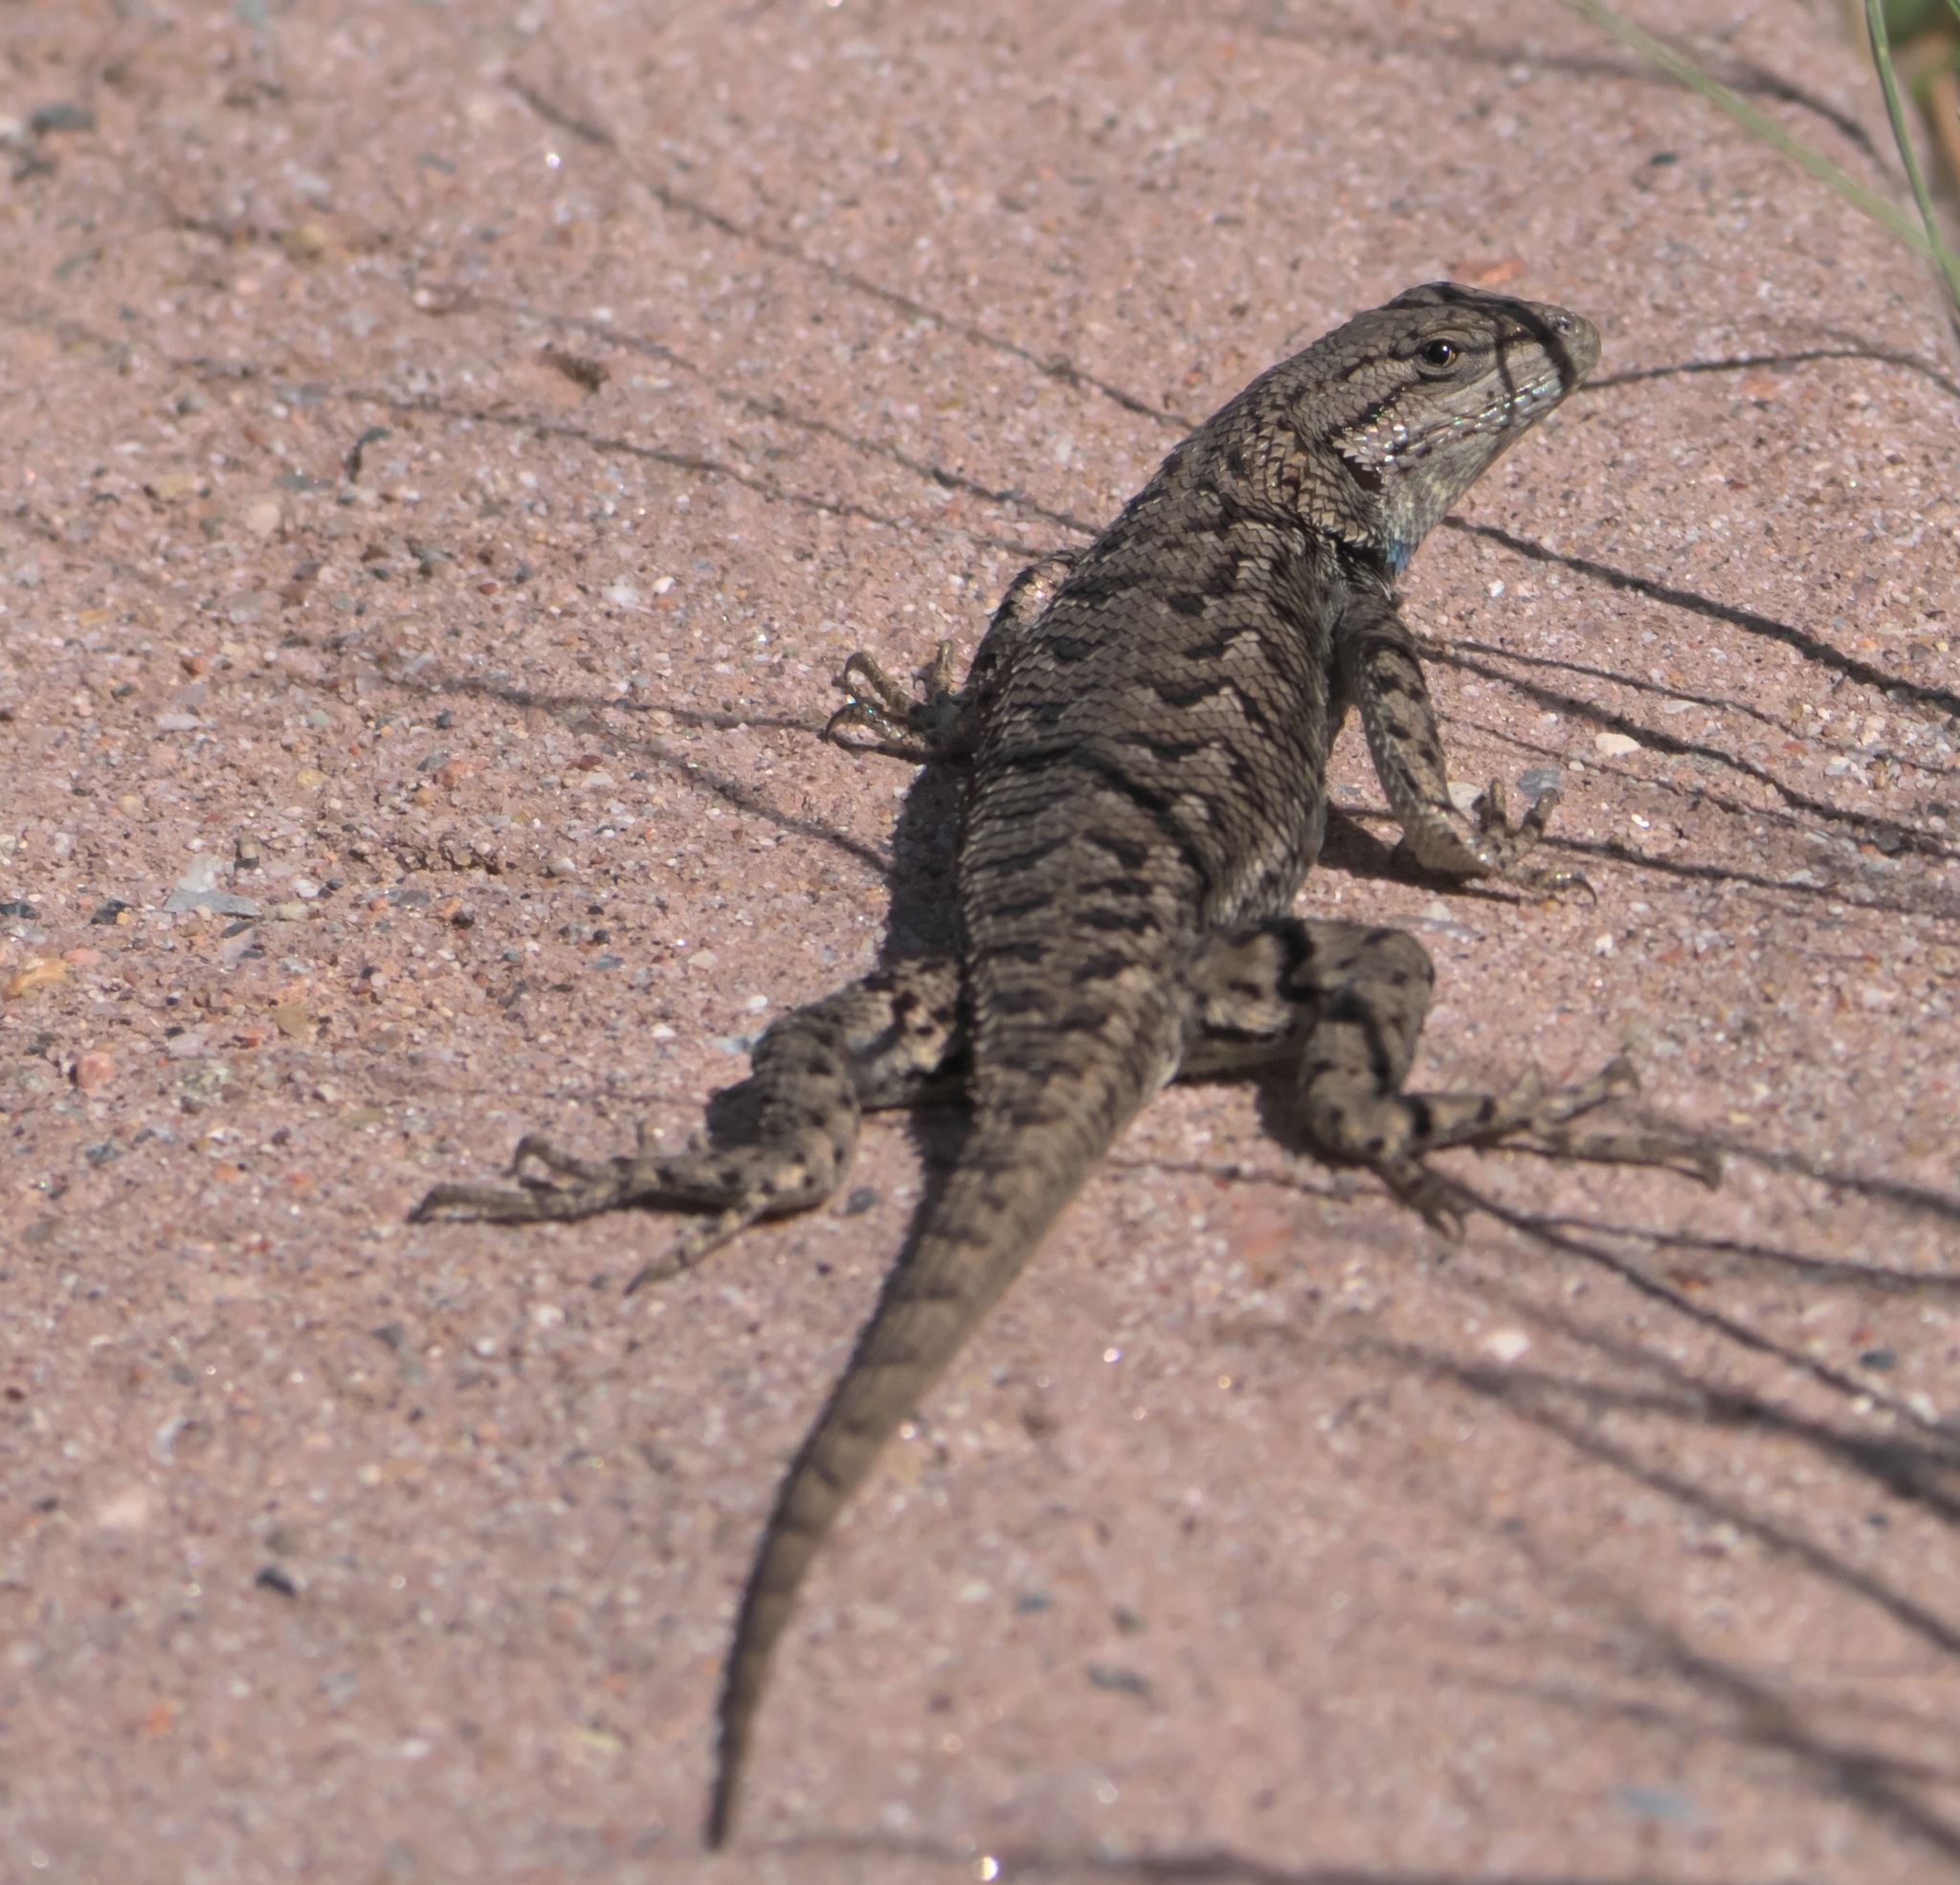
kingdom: Animalia
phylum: Chordata
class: Squamata
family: Phrynosomatidae
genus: Sceloporus
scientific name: Sceloporus consobrinus
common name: Southern prairie lizard
